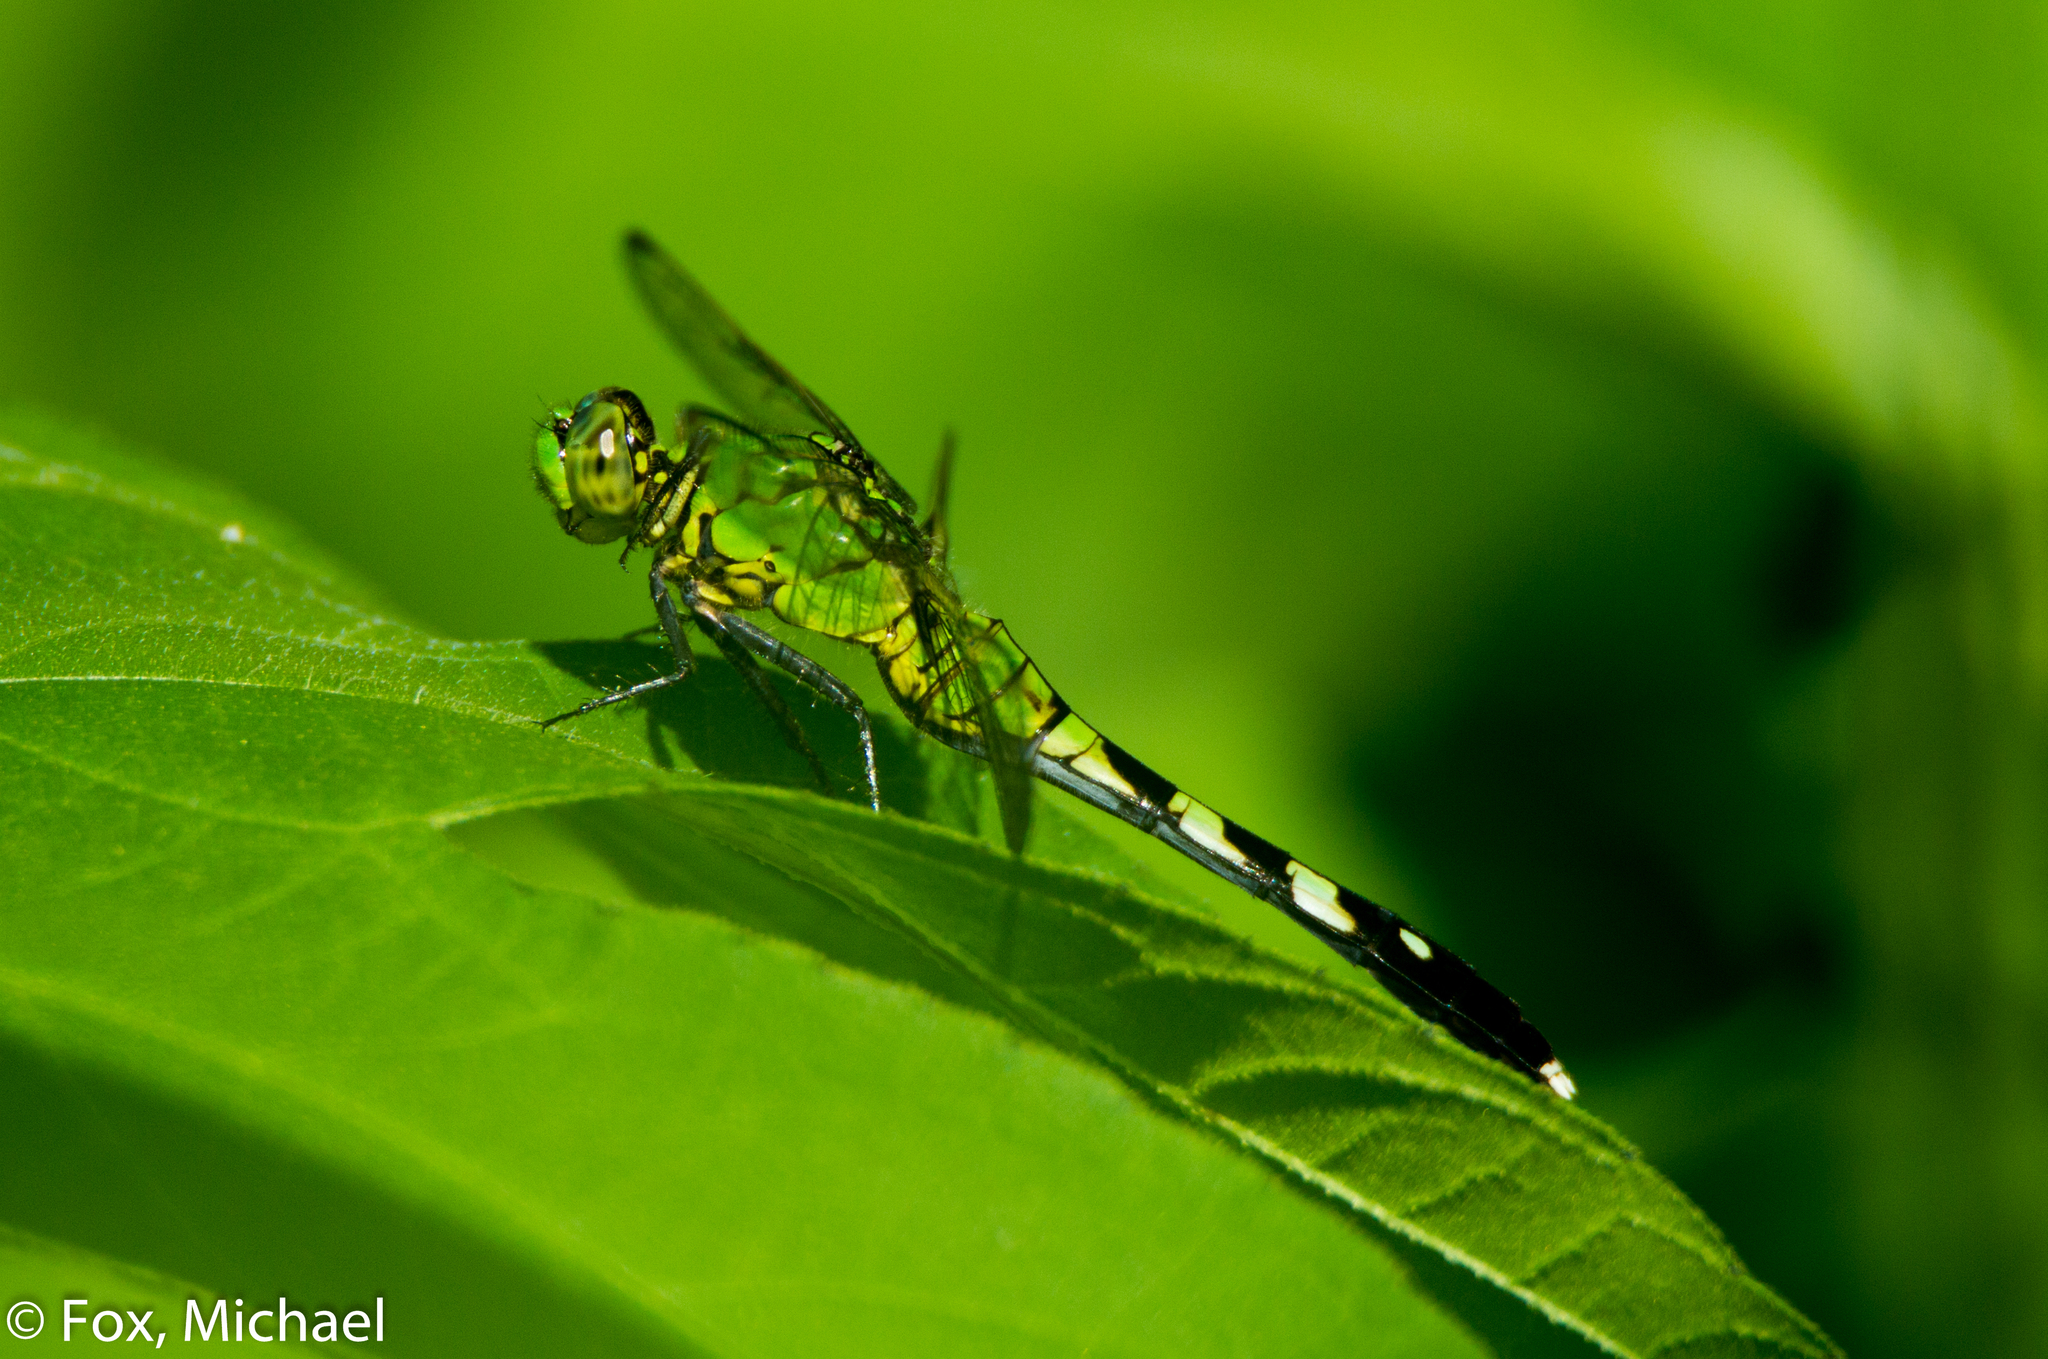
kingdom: Animalia
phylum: Arthropoda
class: Insecta
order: Odonata
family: Libellulidae
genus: Erythemis
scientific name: Erythemis simplicicollis
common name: Eastern pondhawk
